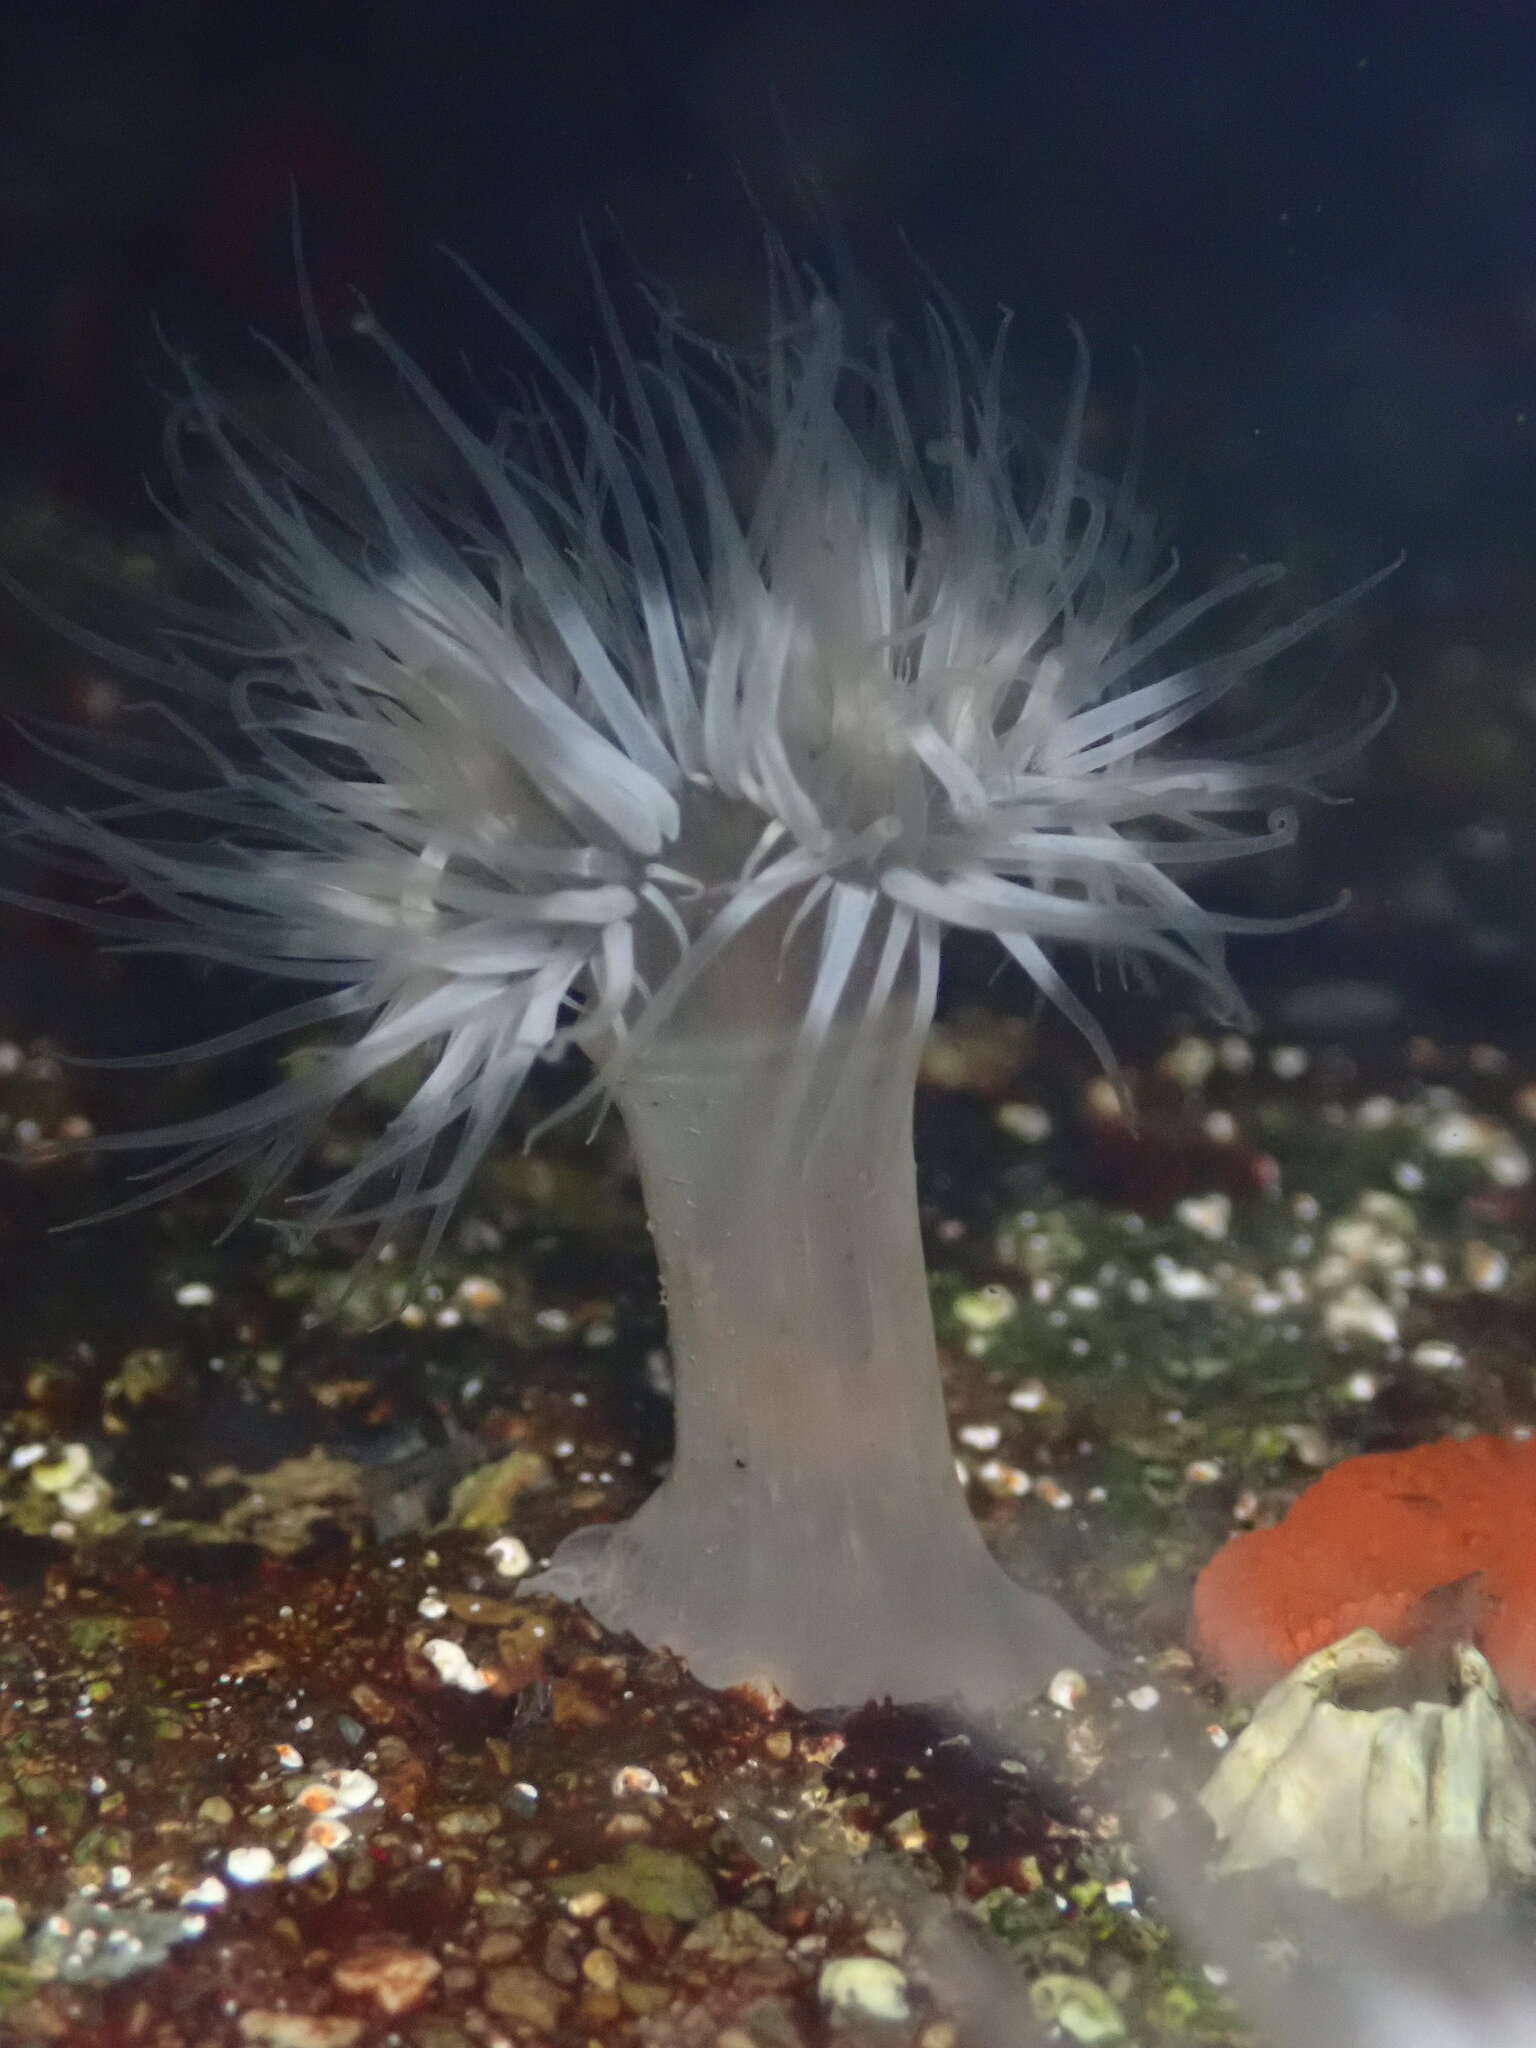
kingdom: Animalia
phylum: Cnidaria
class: Anthozoa
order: Actiniaria
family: Metridiidae
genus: Metridium
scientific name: Metridium senile
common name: Clonal plumose anemone
